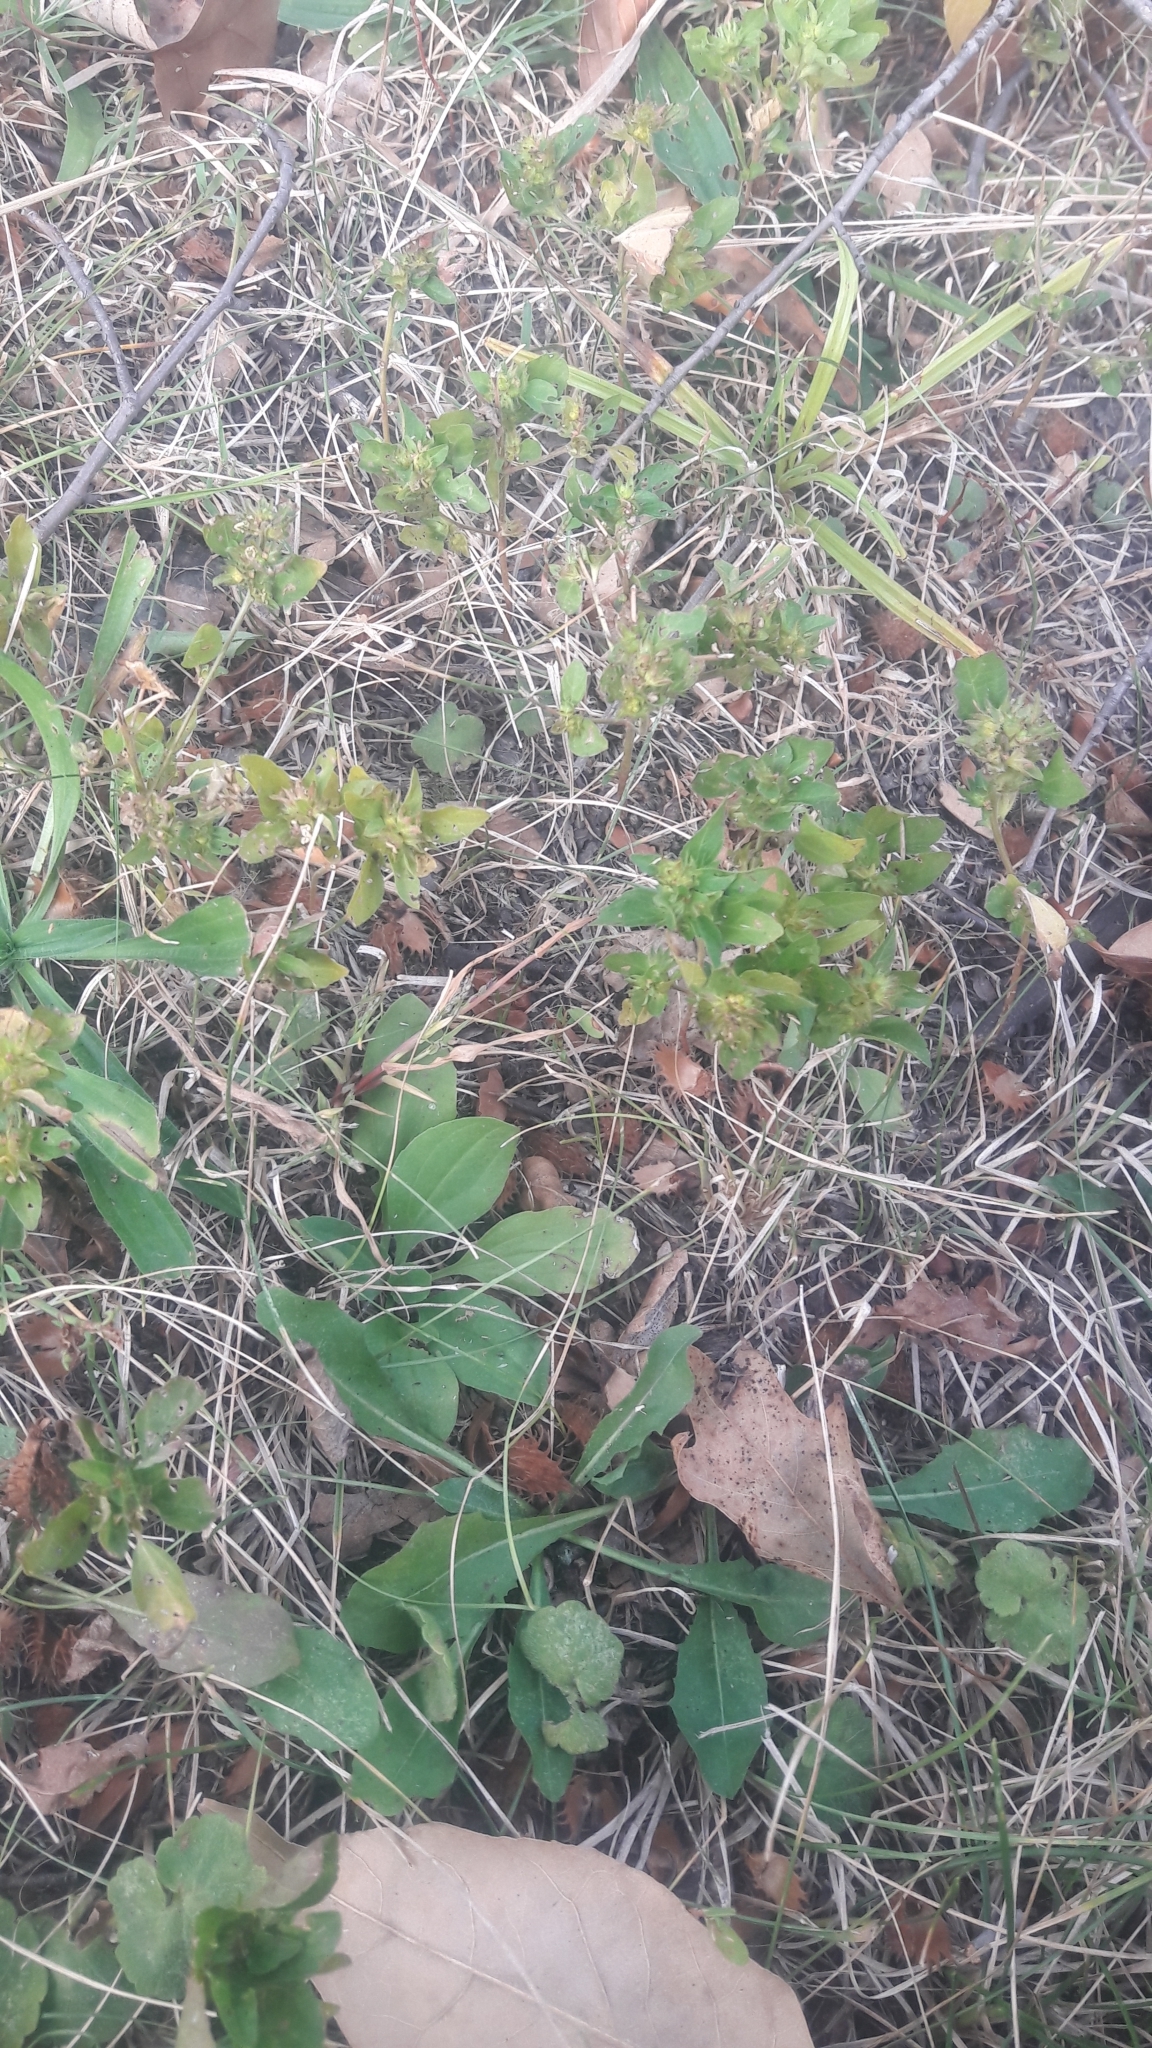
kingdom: Plantae
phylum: Tracheophyta
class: Magnoliopsida
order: Malpighiales
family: Euphorbiaceae
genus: Acalypha
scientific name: Acalypha rhomboidea
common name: Rhombic copperleaf
